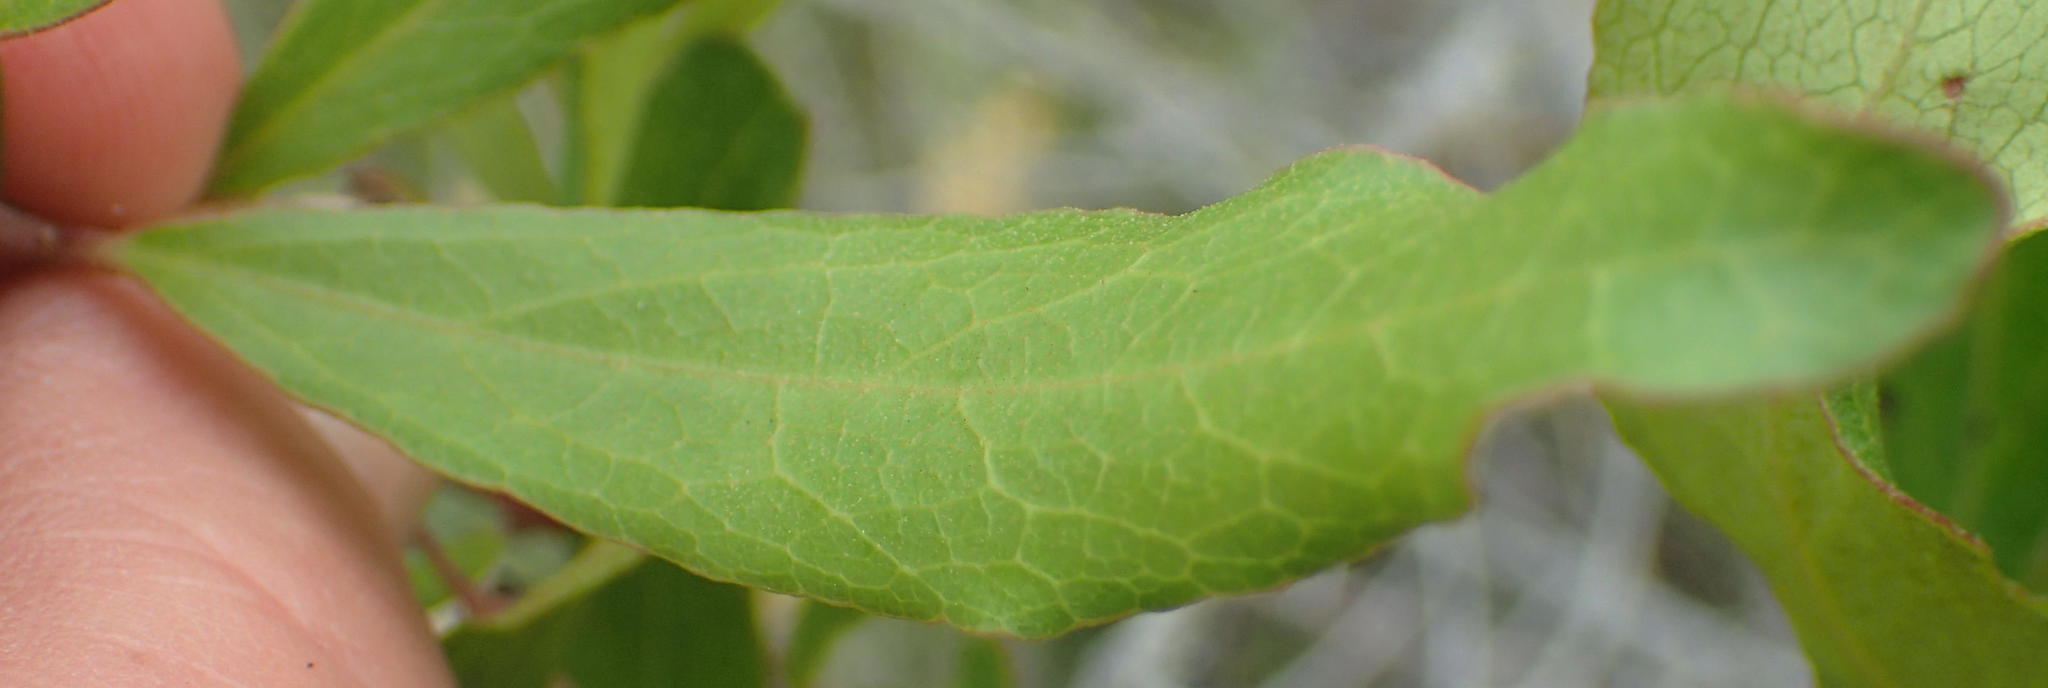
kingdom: Plantae
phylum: Tracheophyta
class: Magnoliopsida
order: Ericales
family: Ebenaceae
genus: Euclea
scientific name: Euclea crispa
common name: Blue guarri
